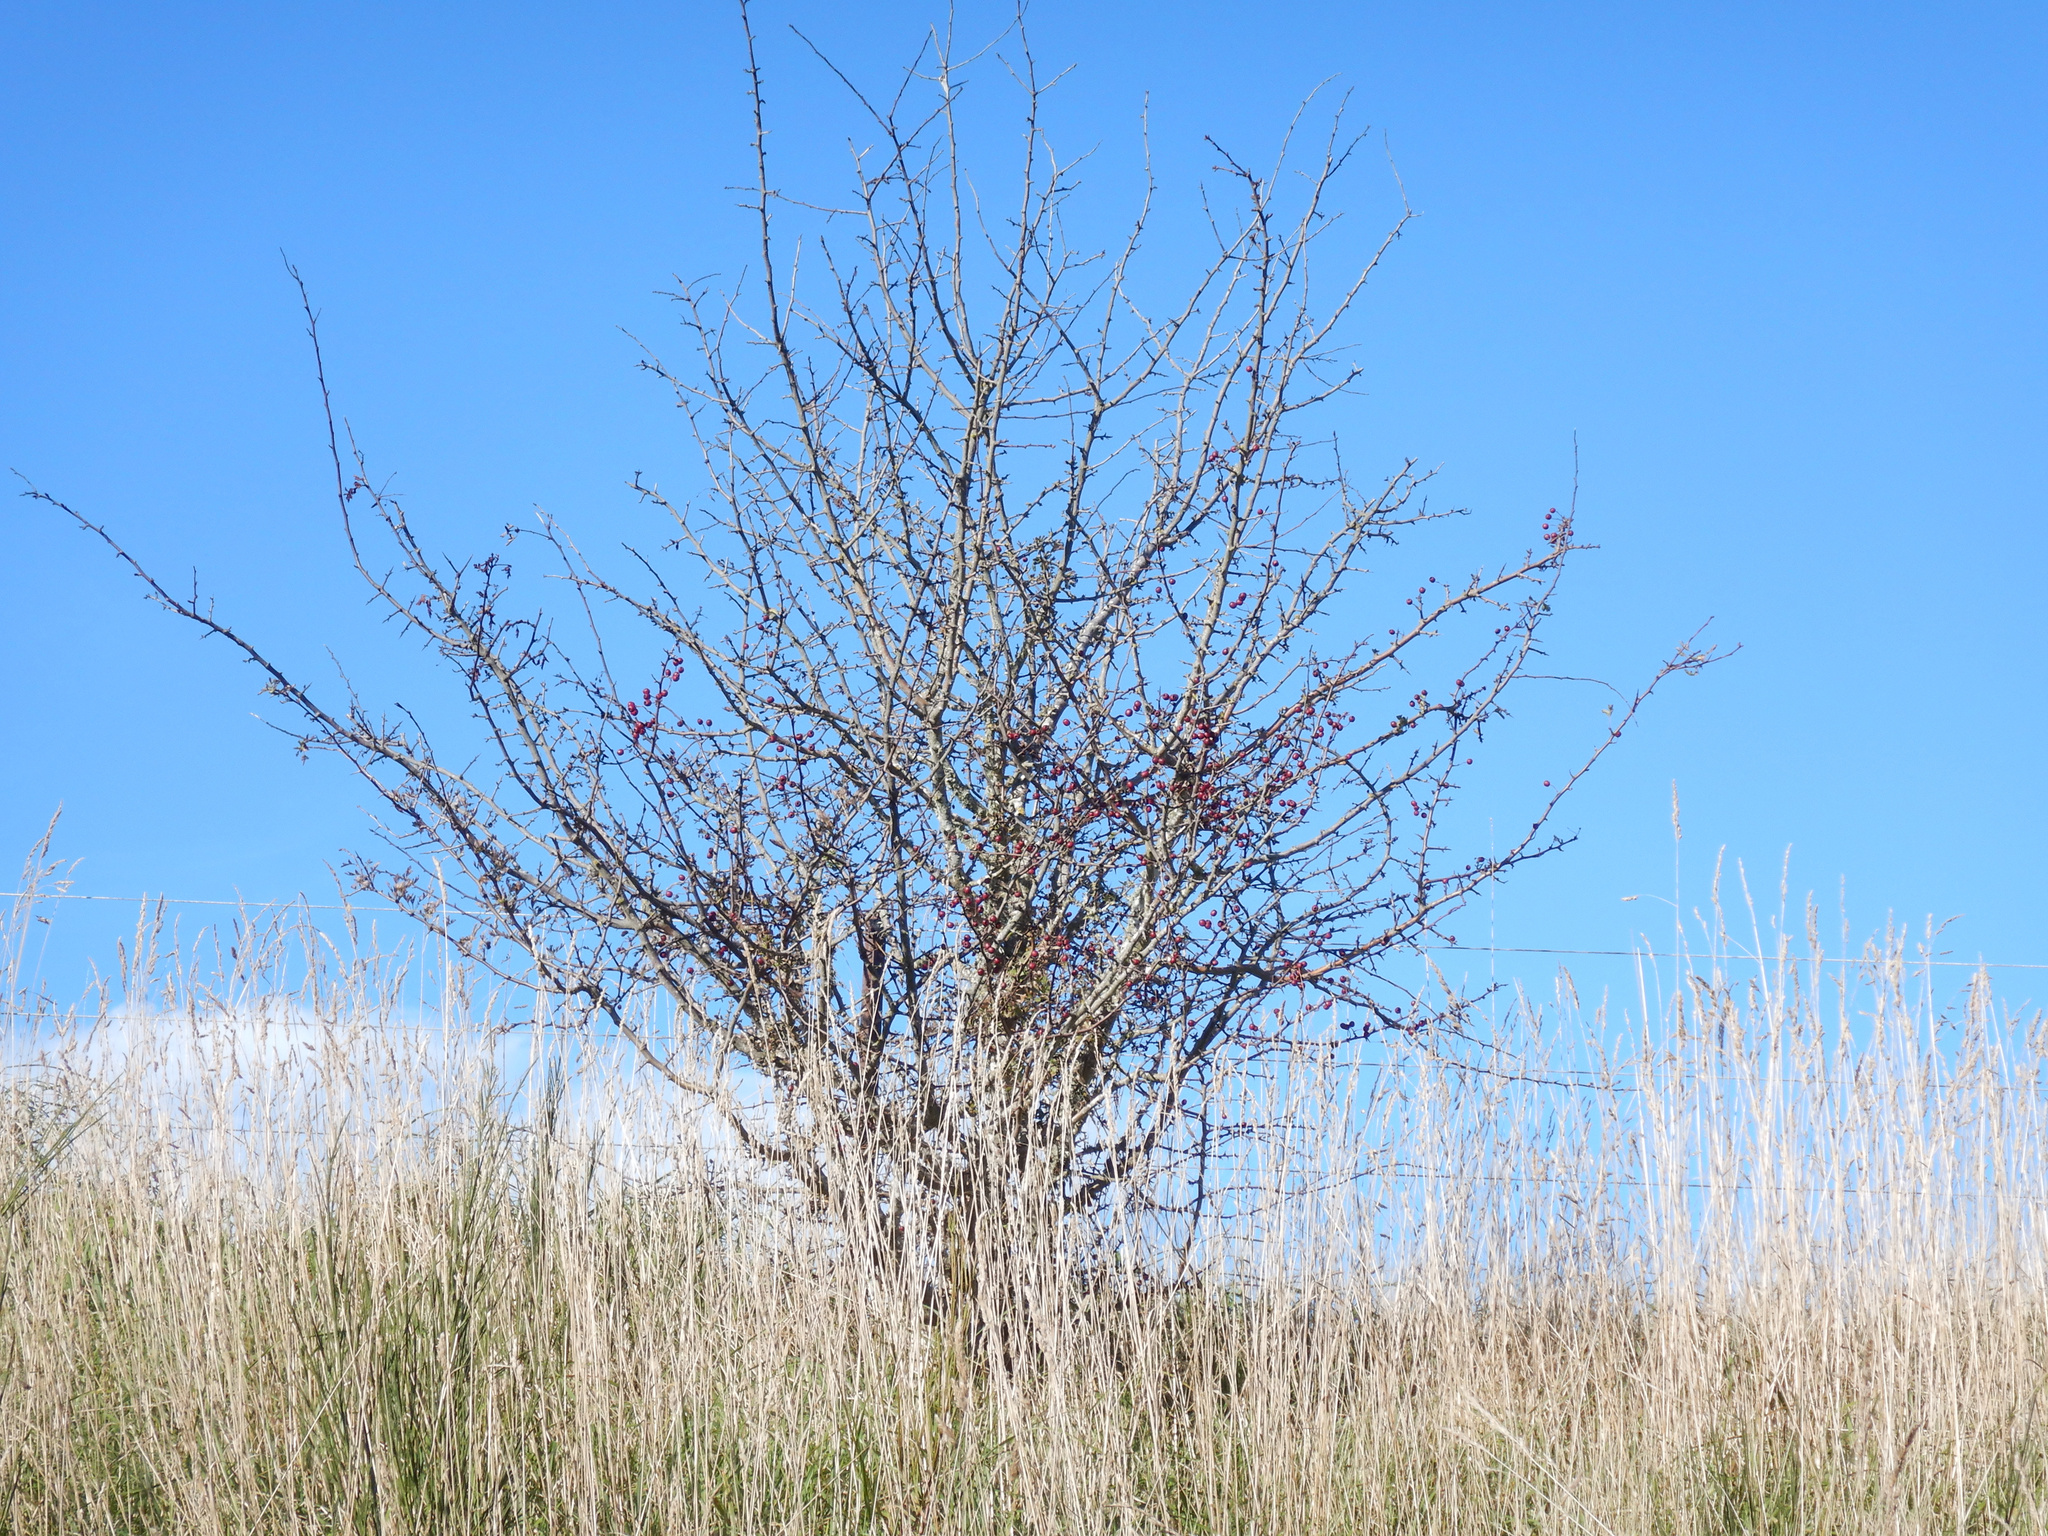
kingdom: Plantae
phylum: Tracheophyta
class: Magnoliopsida
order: Rosales
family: Rosaceae
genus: Crataegus
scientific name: Crataegus monogyna
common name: Hawthorn
